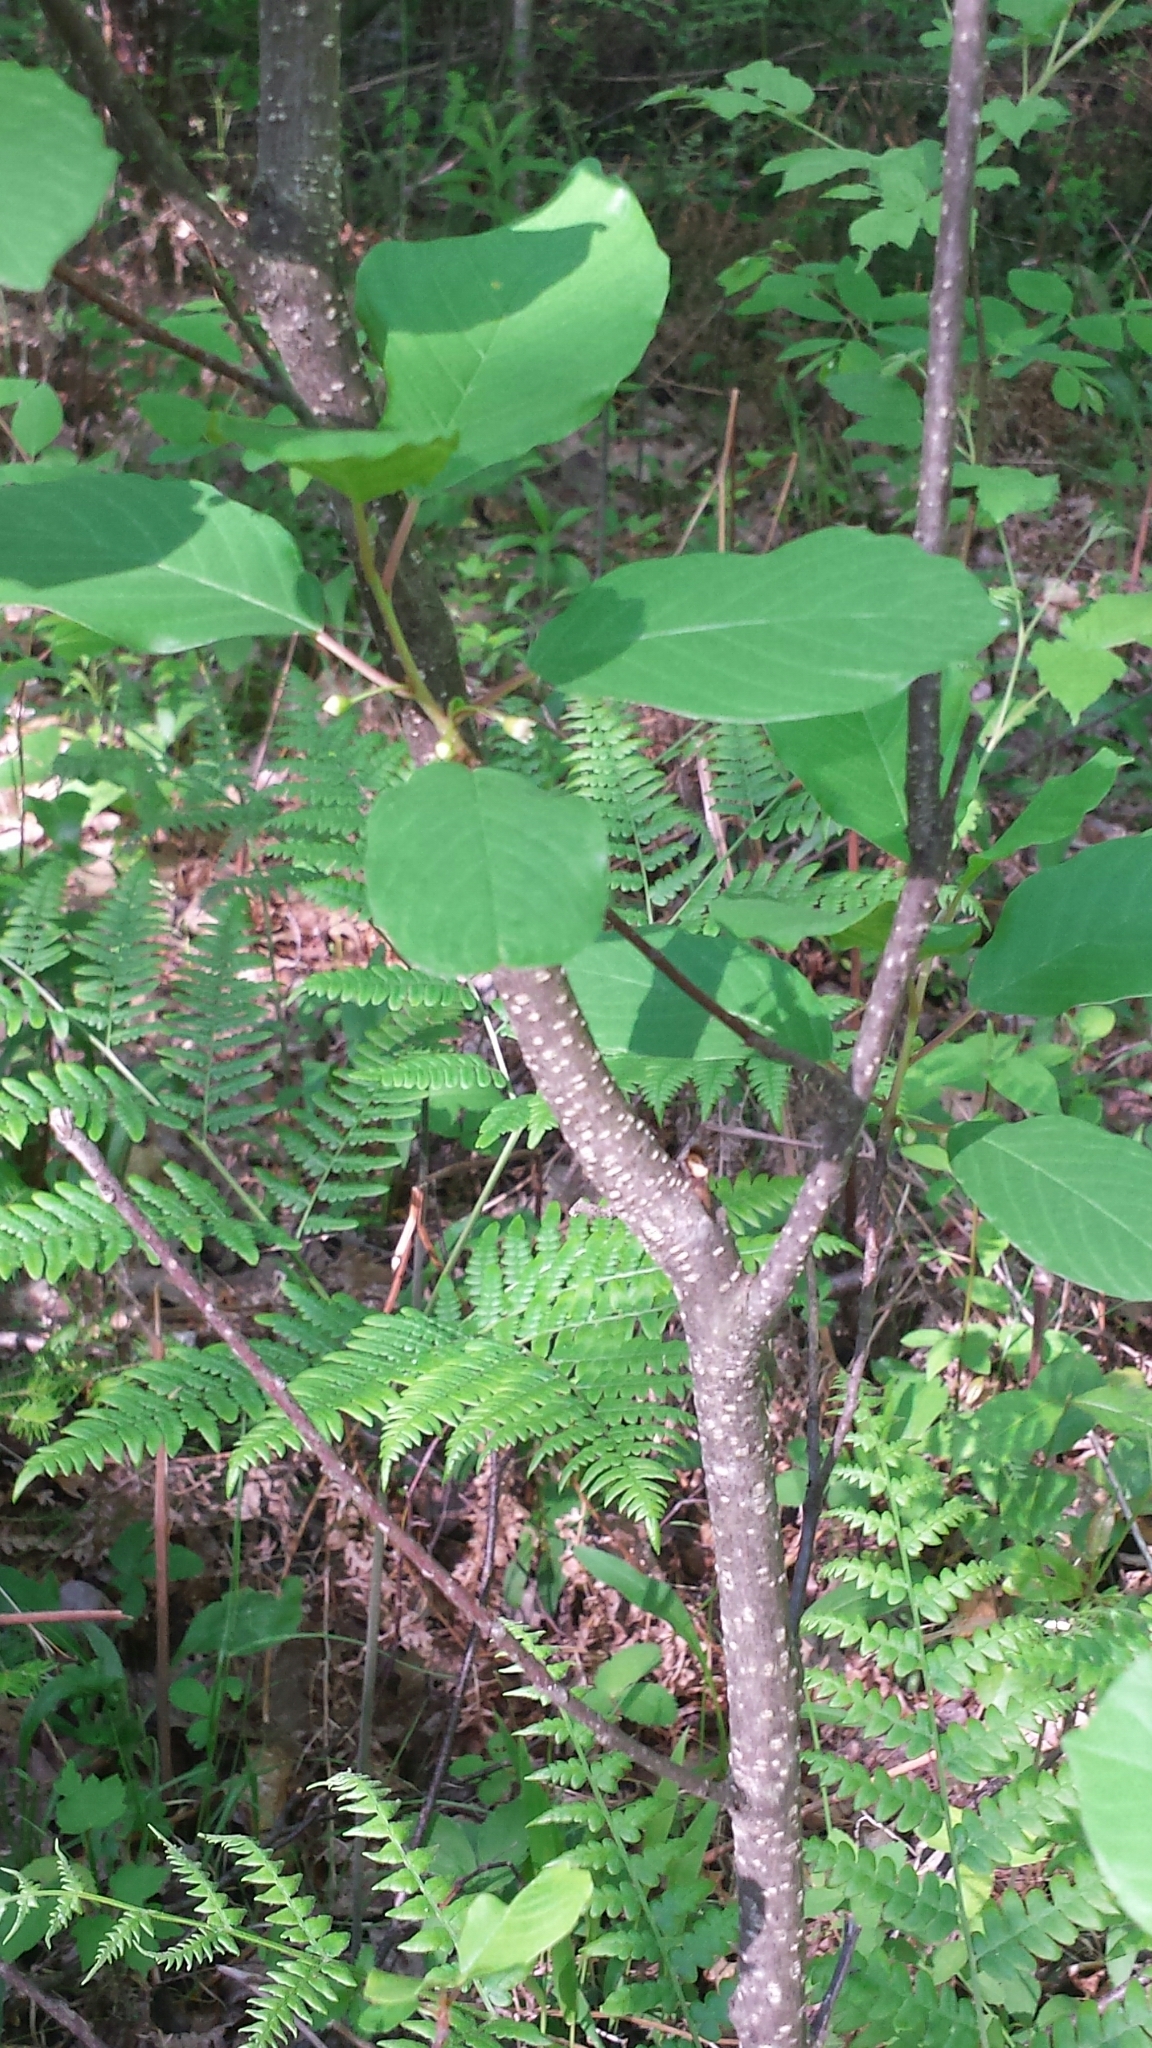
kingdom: Plantae
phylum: Tracheophyta
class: Magnoliopsida
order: Rosales
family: Rhamnaceae
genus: Frangula
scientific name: Frangula alnus
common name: Alder buckthorn
